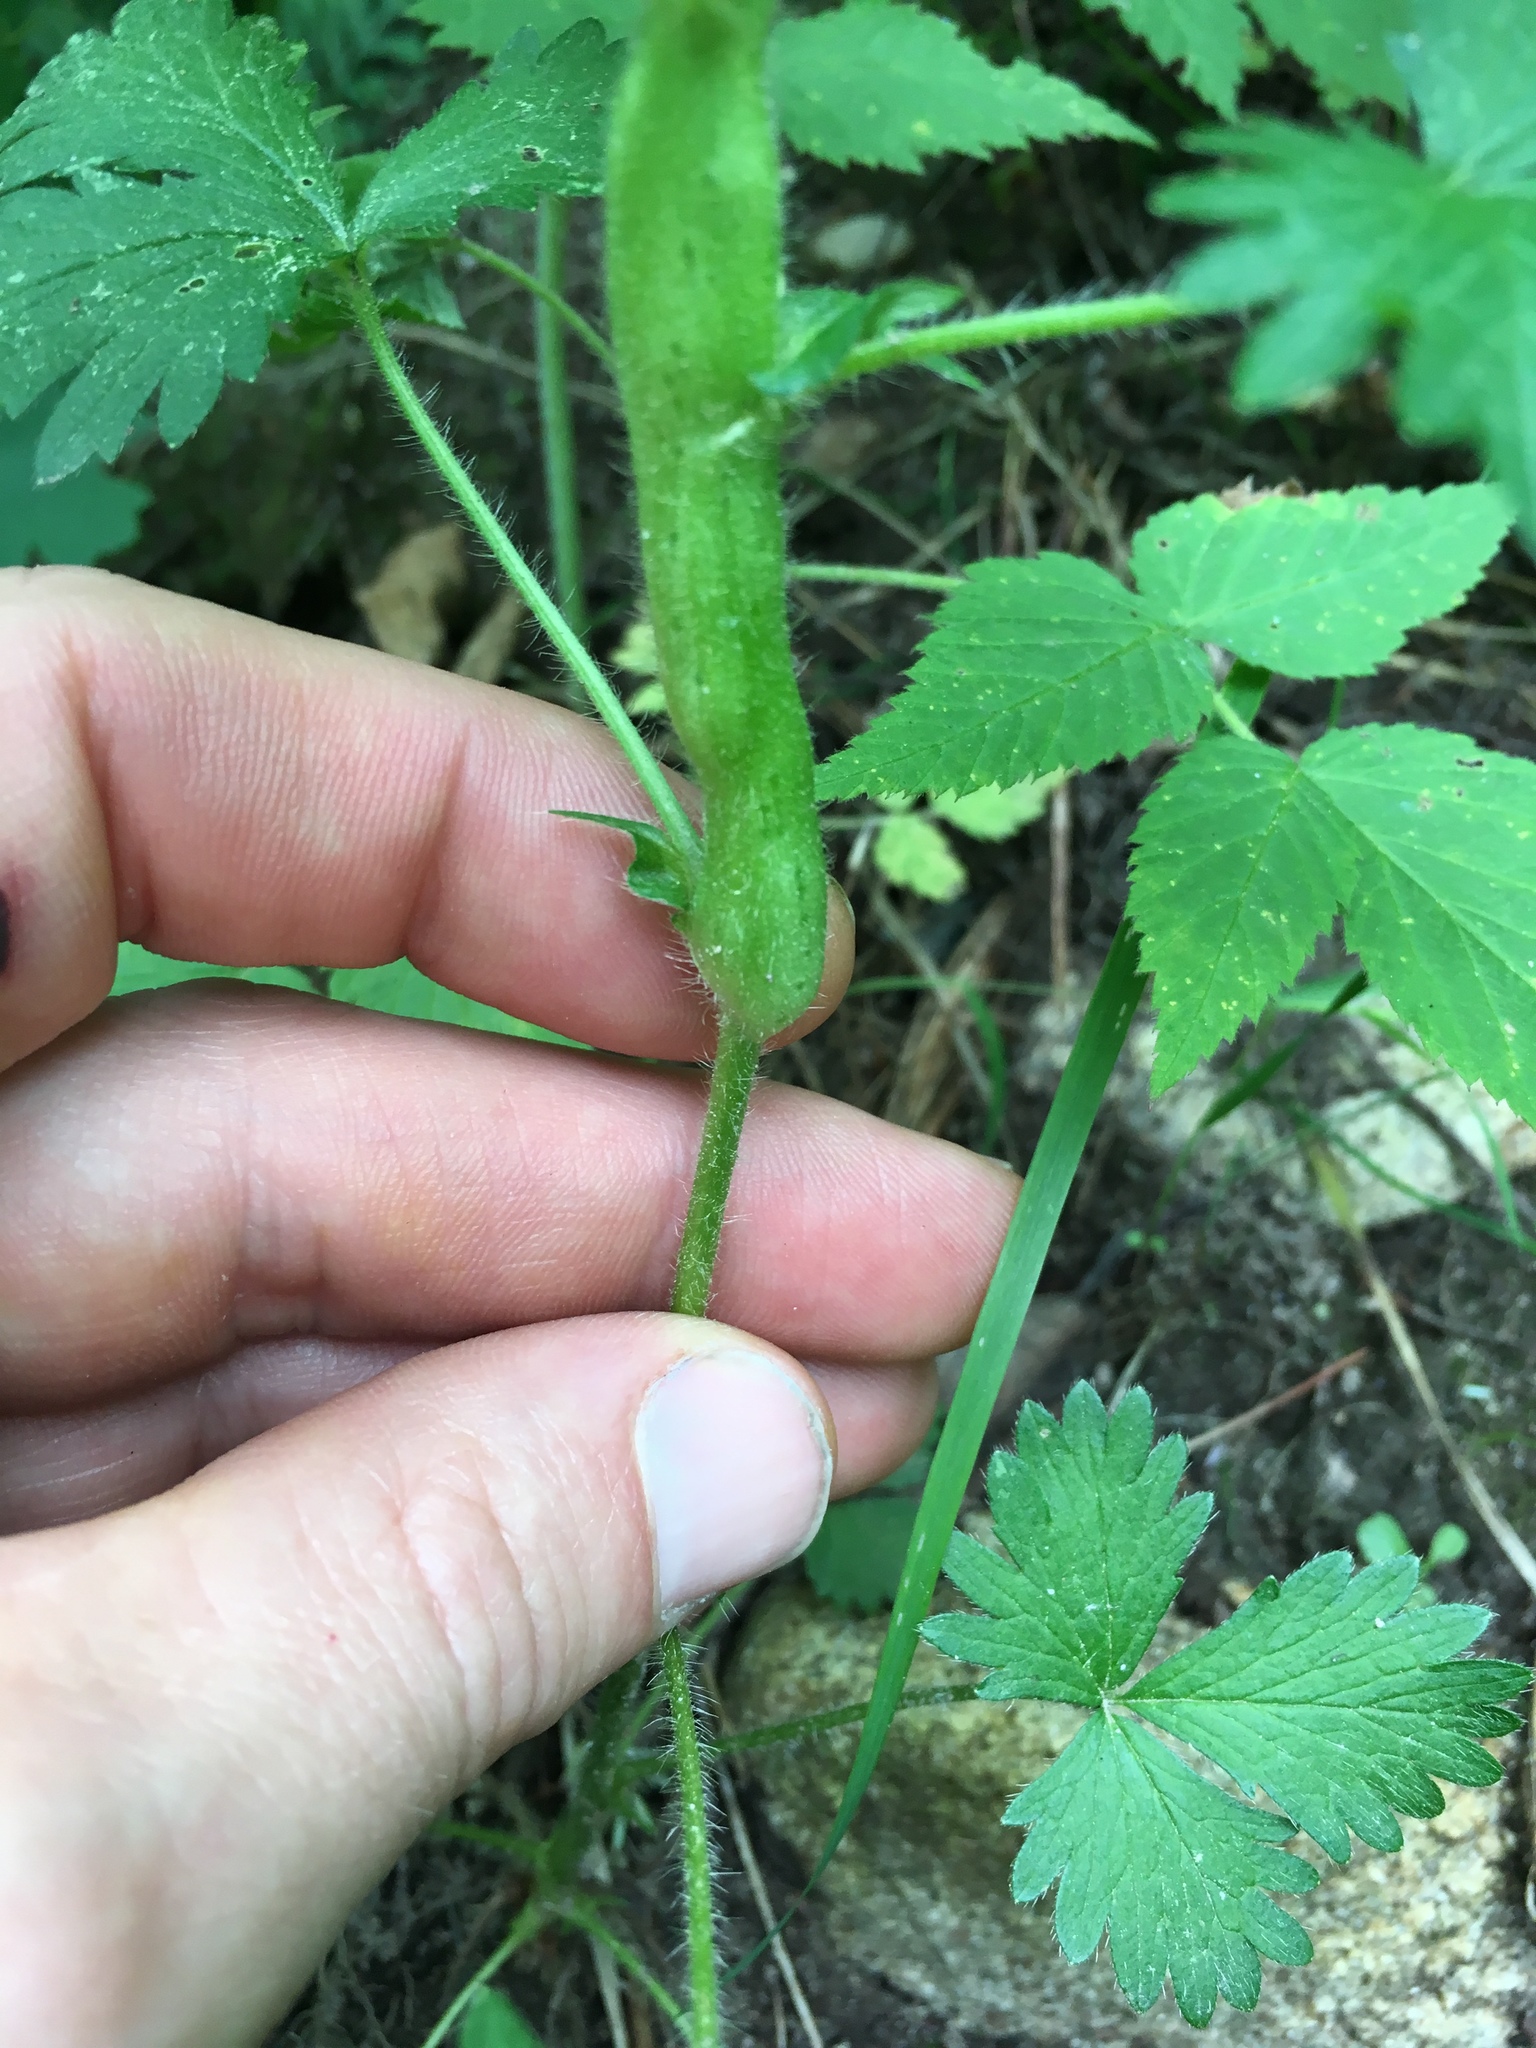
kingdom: Plantae
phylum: Tracheophyta
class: Magnoliopsida
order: Rosales
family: Rosaceae
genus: Potentilla
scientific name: Potentilla norvegica
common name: Ternate-leaved cinquefoil
